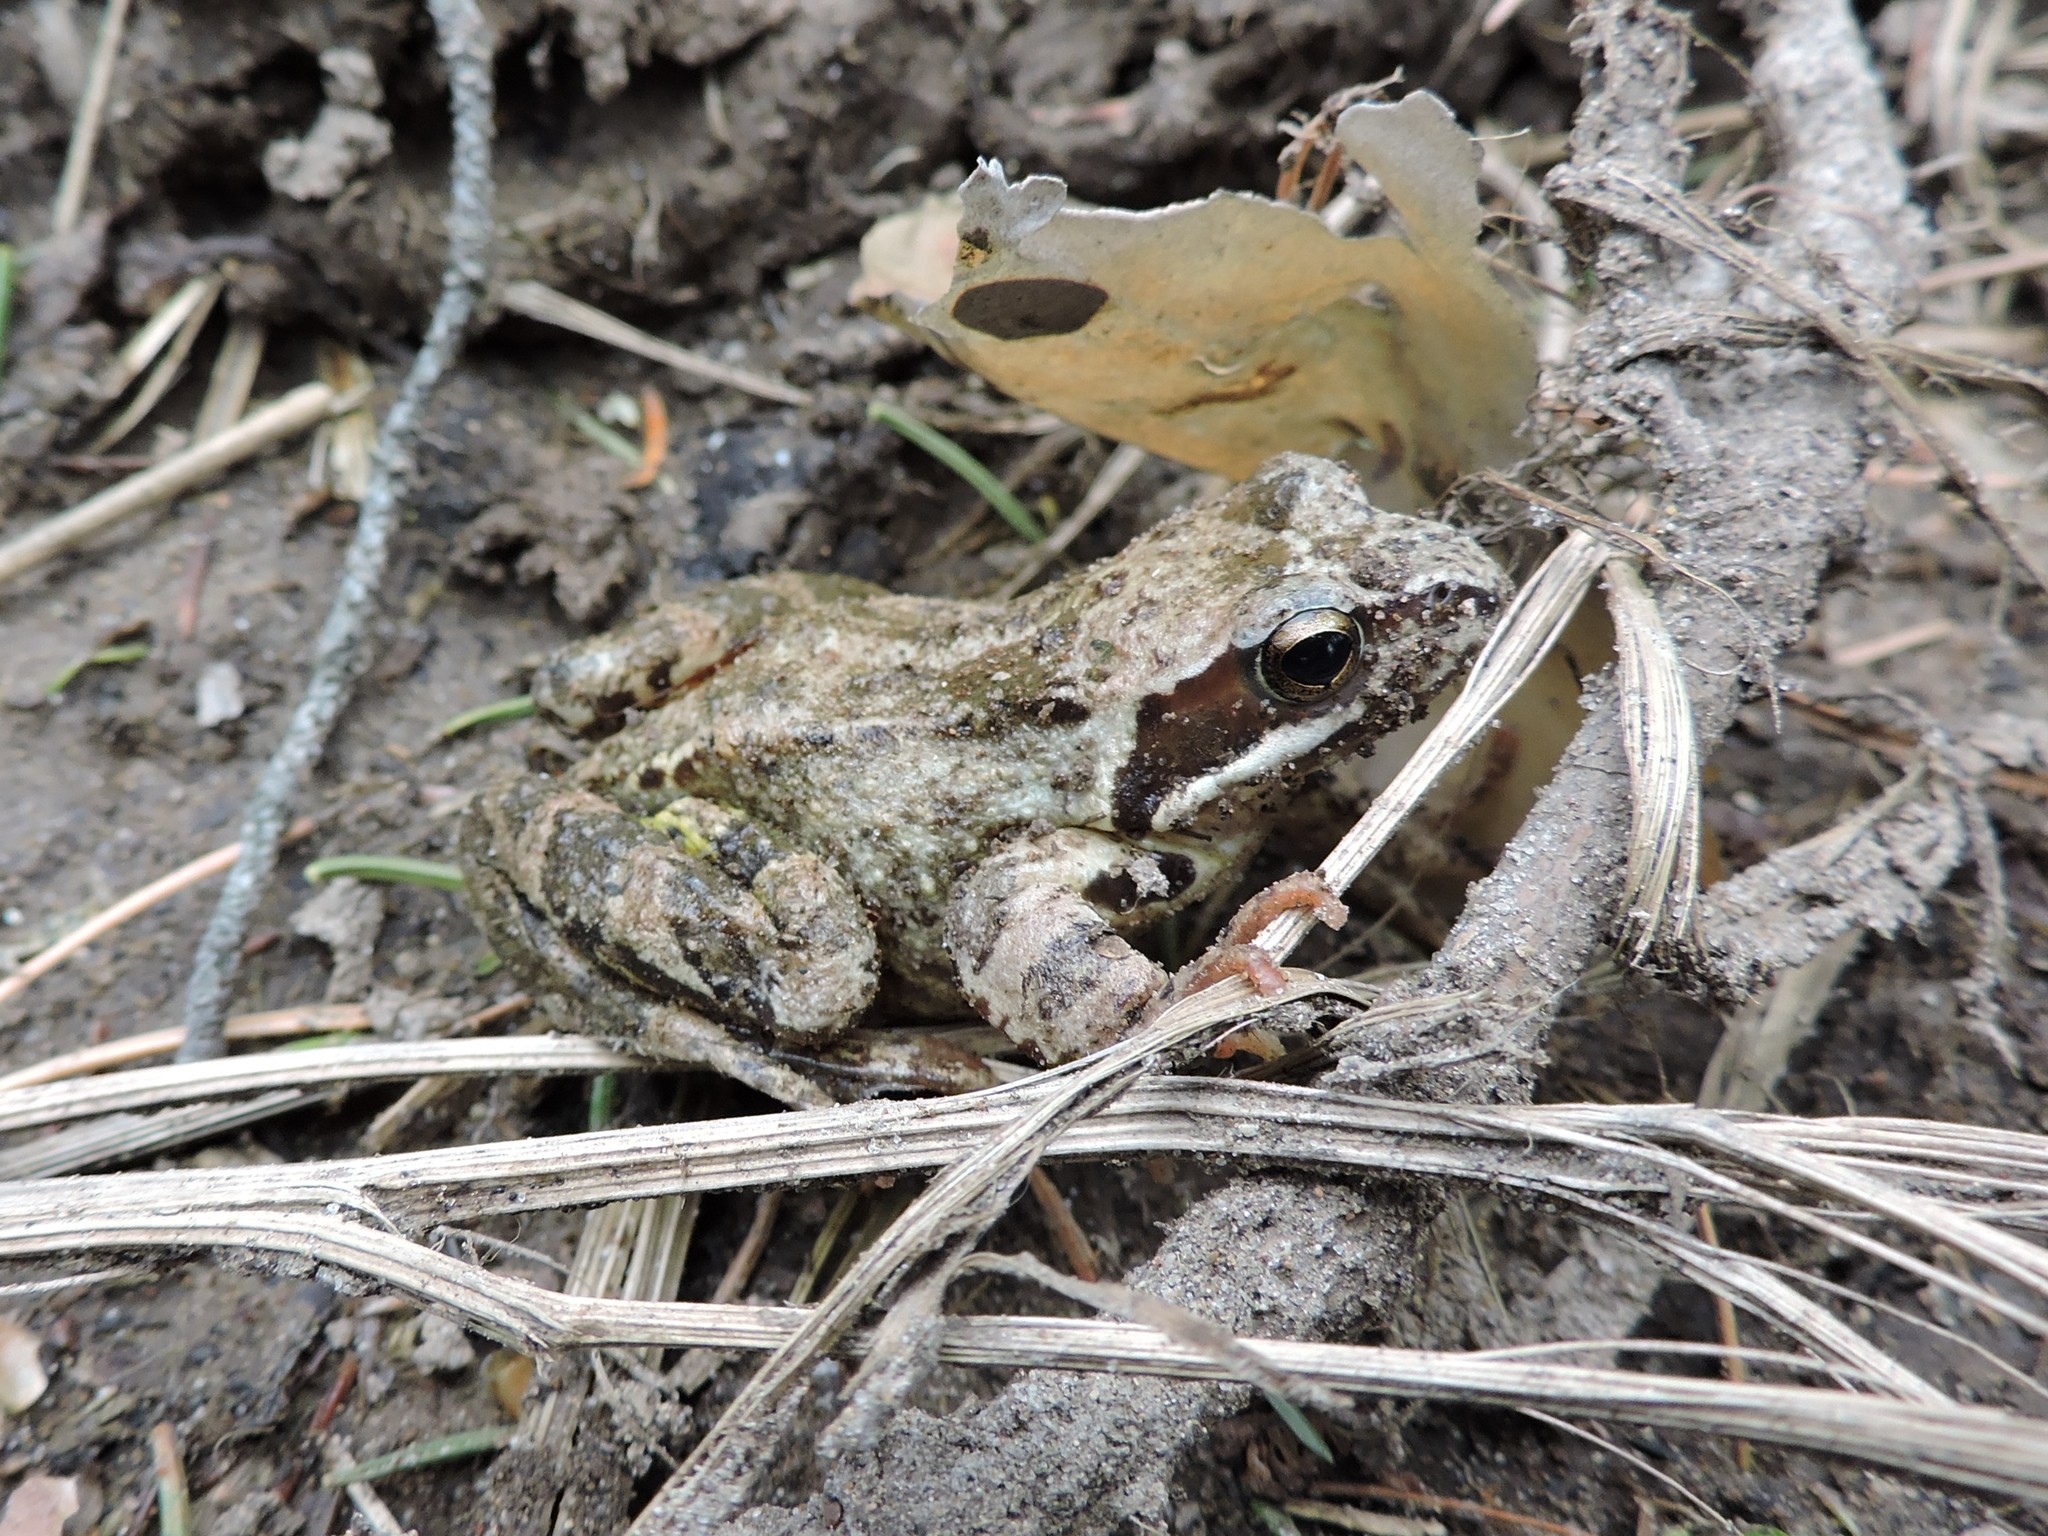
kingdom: Animalia
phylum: Chordata
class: Amphibia
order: Anura
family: Ranidae
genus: Rana
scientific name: Rana temporaria
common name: Common frog
